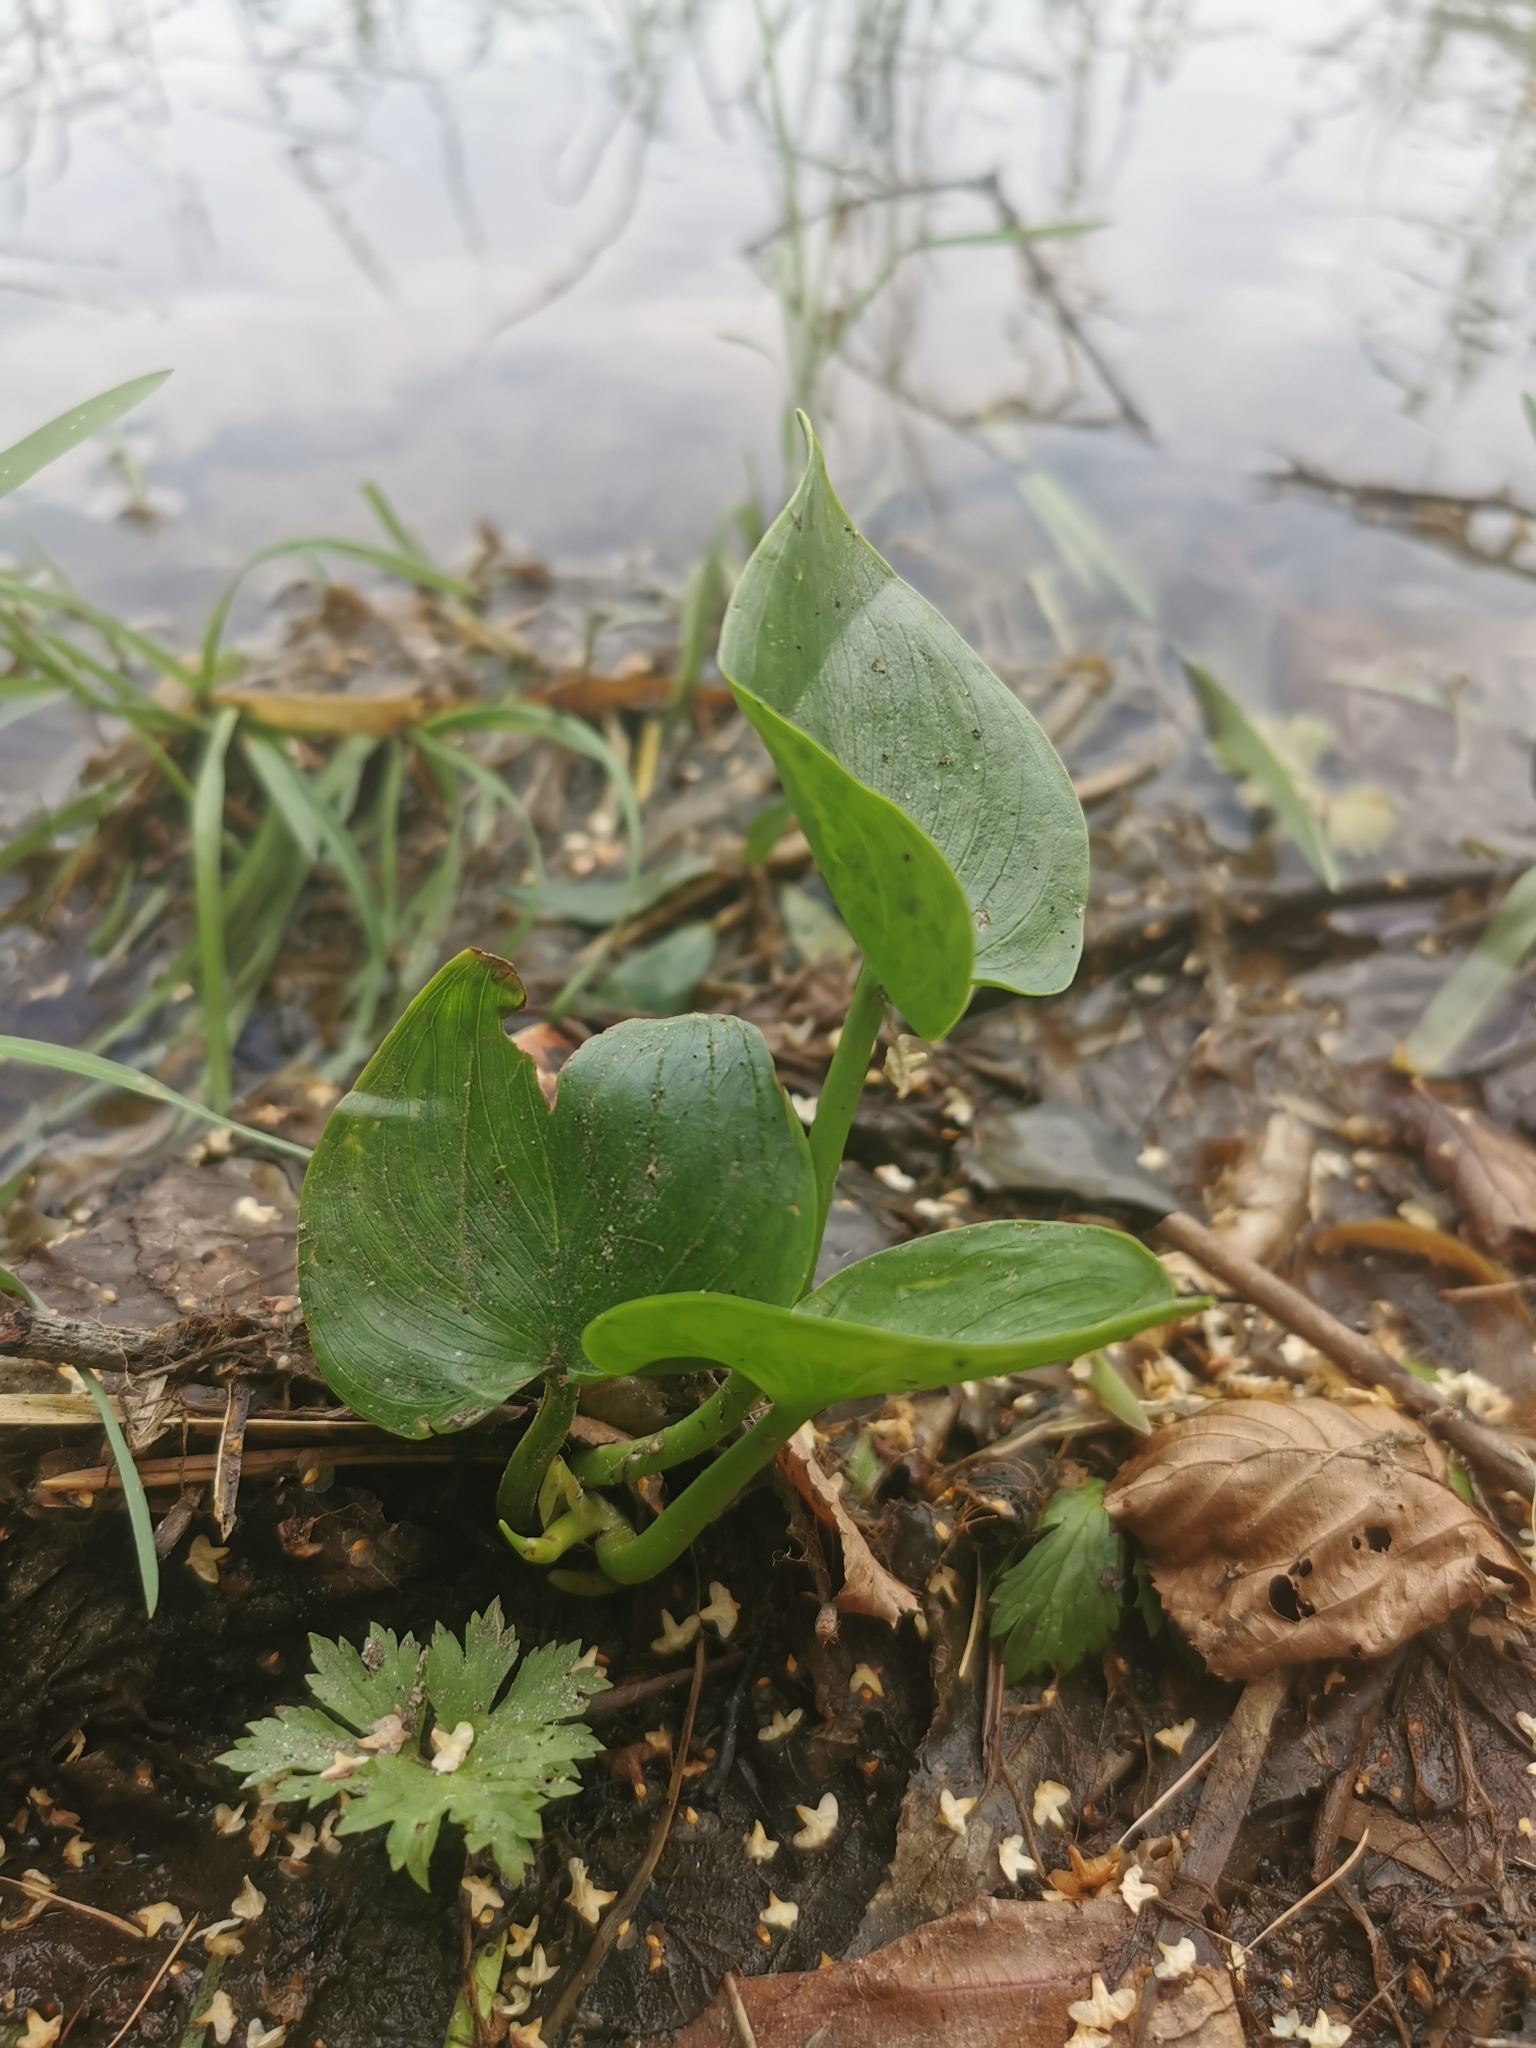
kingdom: Plantae
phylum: Tracheophyta
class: Liliopsida
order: Alismatales
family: Araceae
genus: Calla
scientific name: Calla palustris
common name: Bog arum
